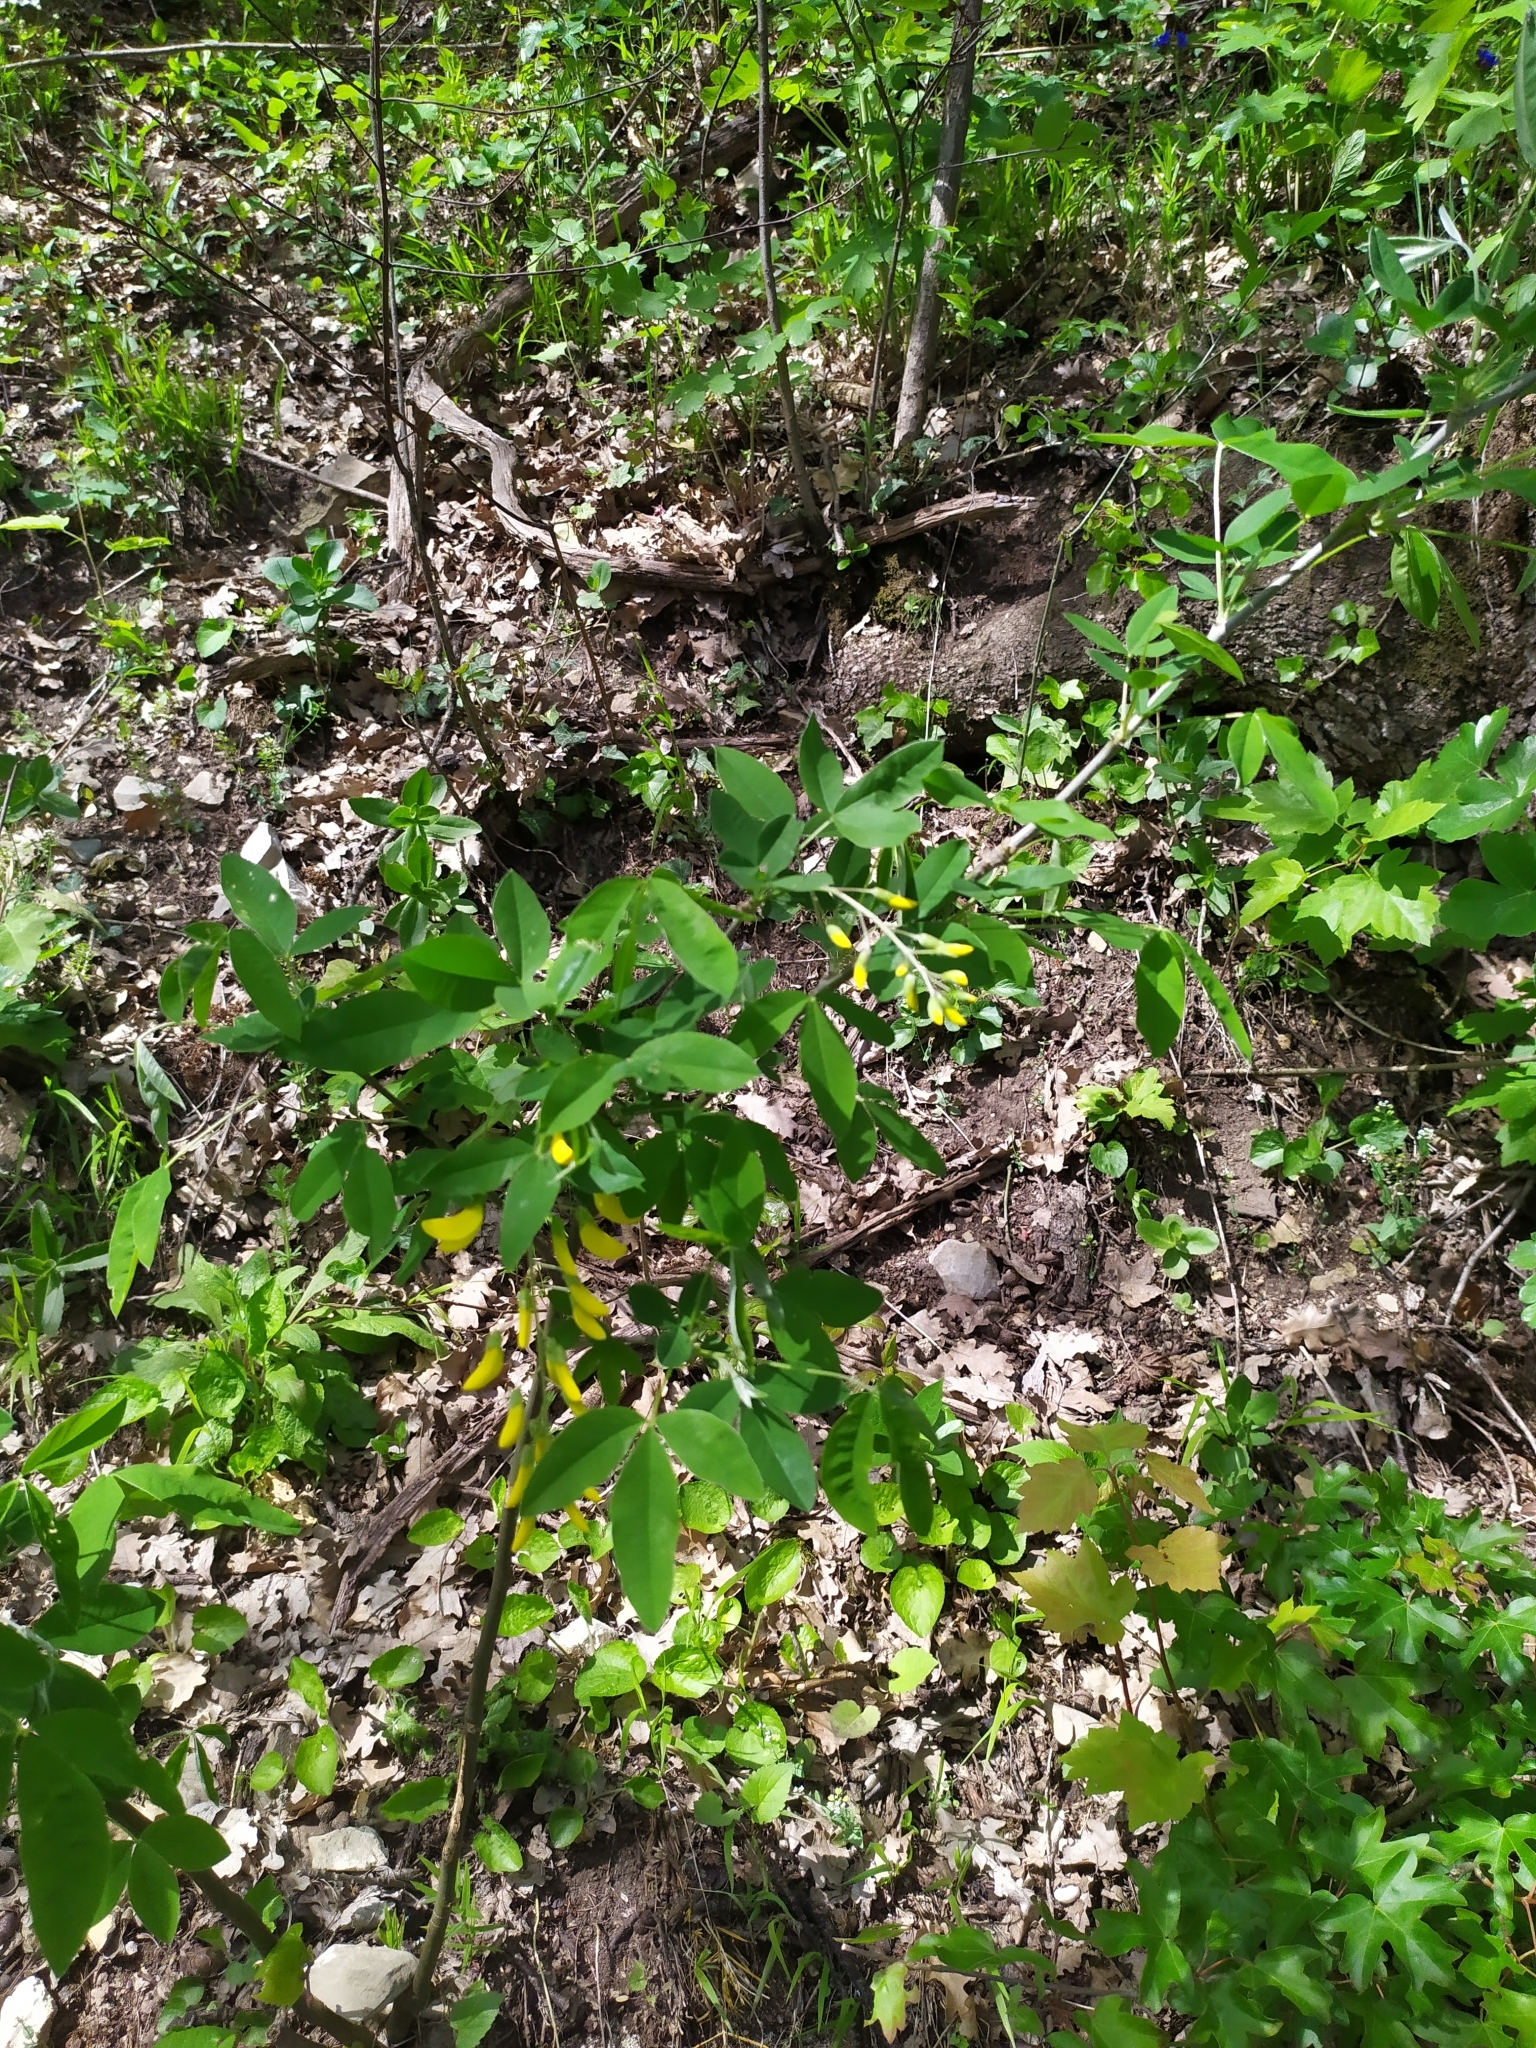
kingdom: Plantae
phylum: Tracheophyta
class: Magnoliopsida
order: Fabales
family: Fabaceae
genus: Laburnum
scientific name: Laburnum anagyroides
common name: Laburnum
